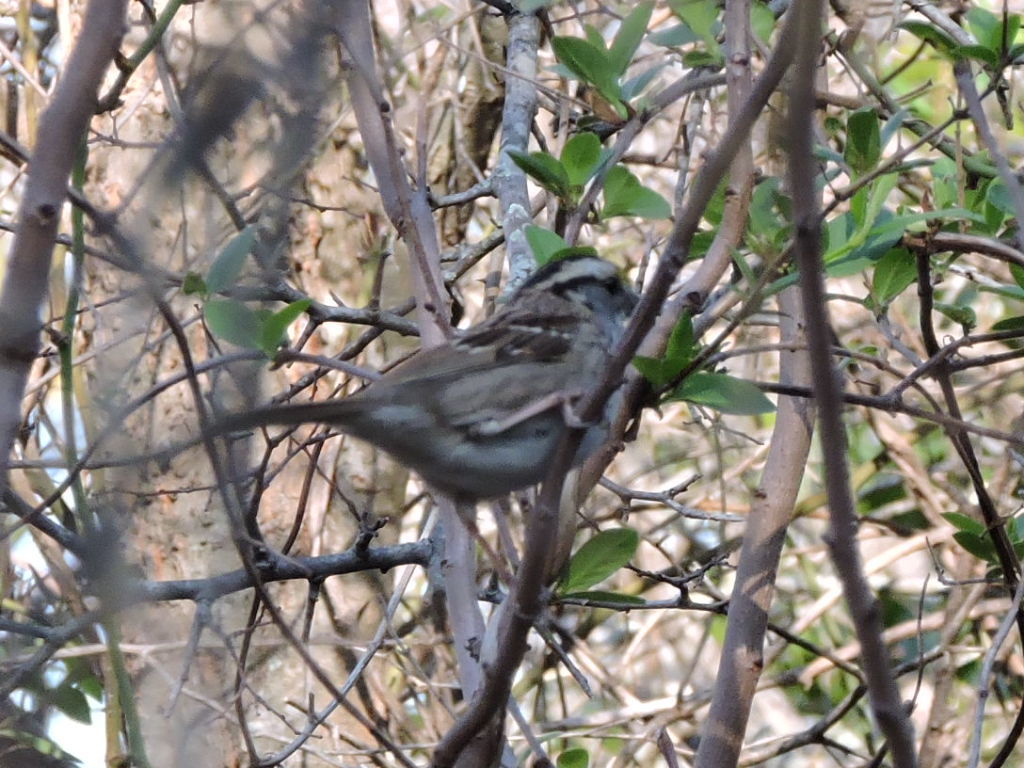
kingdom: Animalia
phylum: Chordata
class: Aves
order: Passeriformes
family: Passerellidae
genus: Zonotrichia
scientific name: Zonotrichia albicollis
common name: White-throated sparrow
